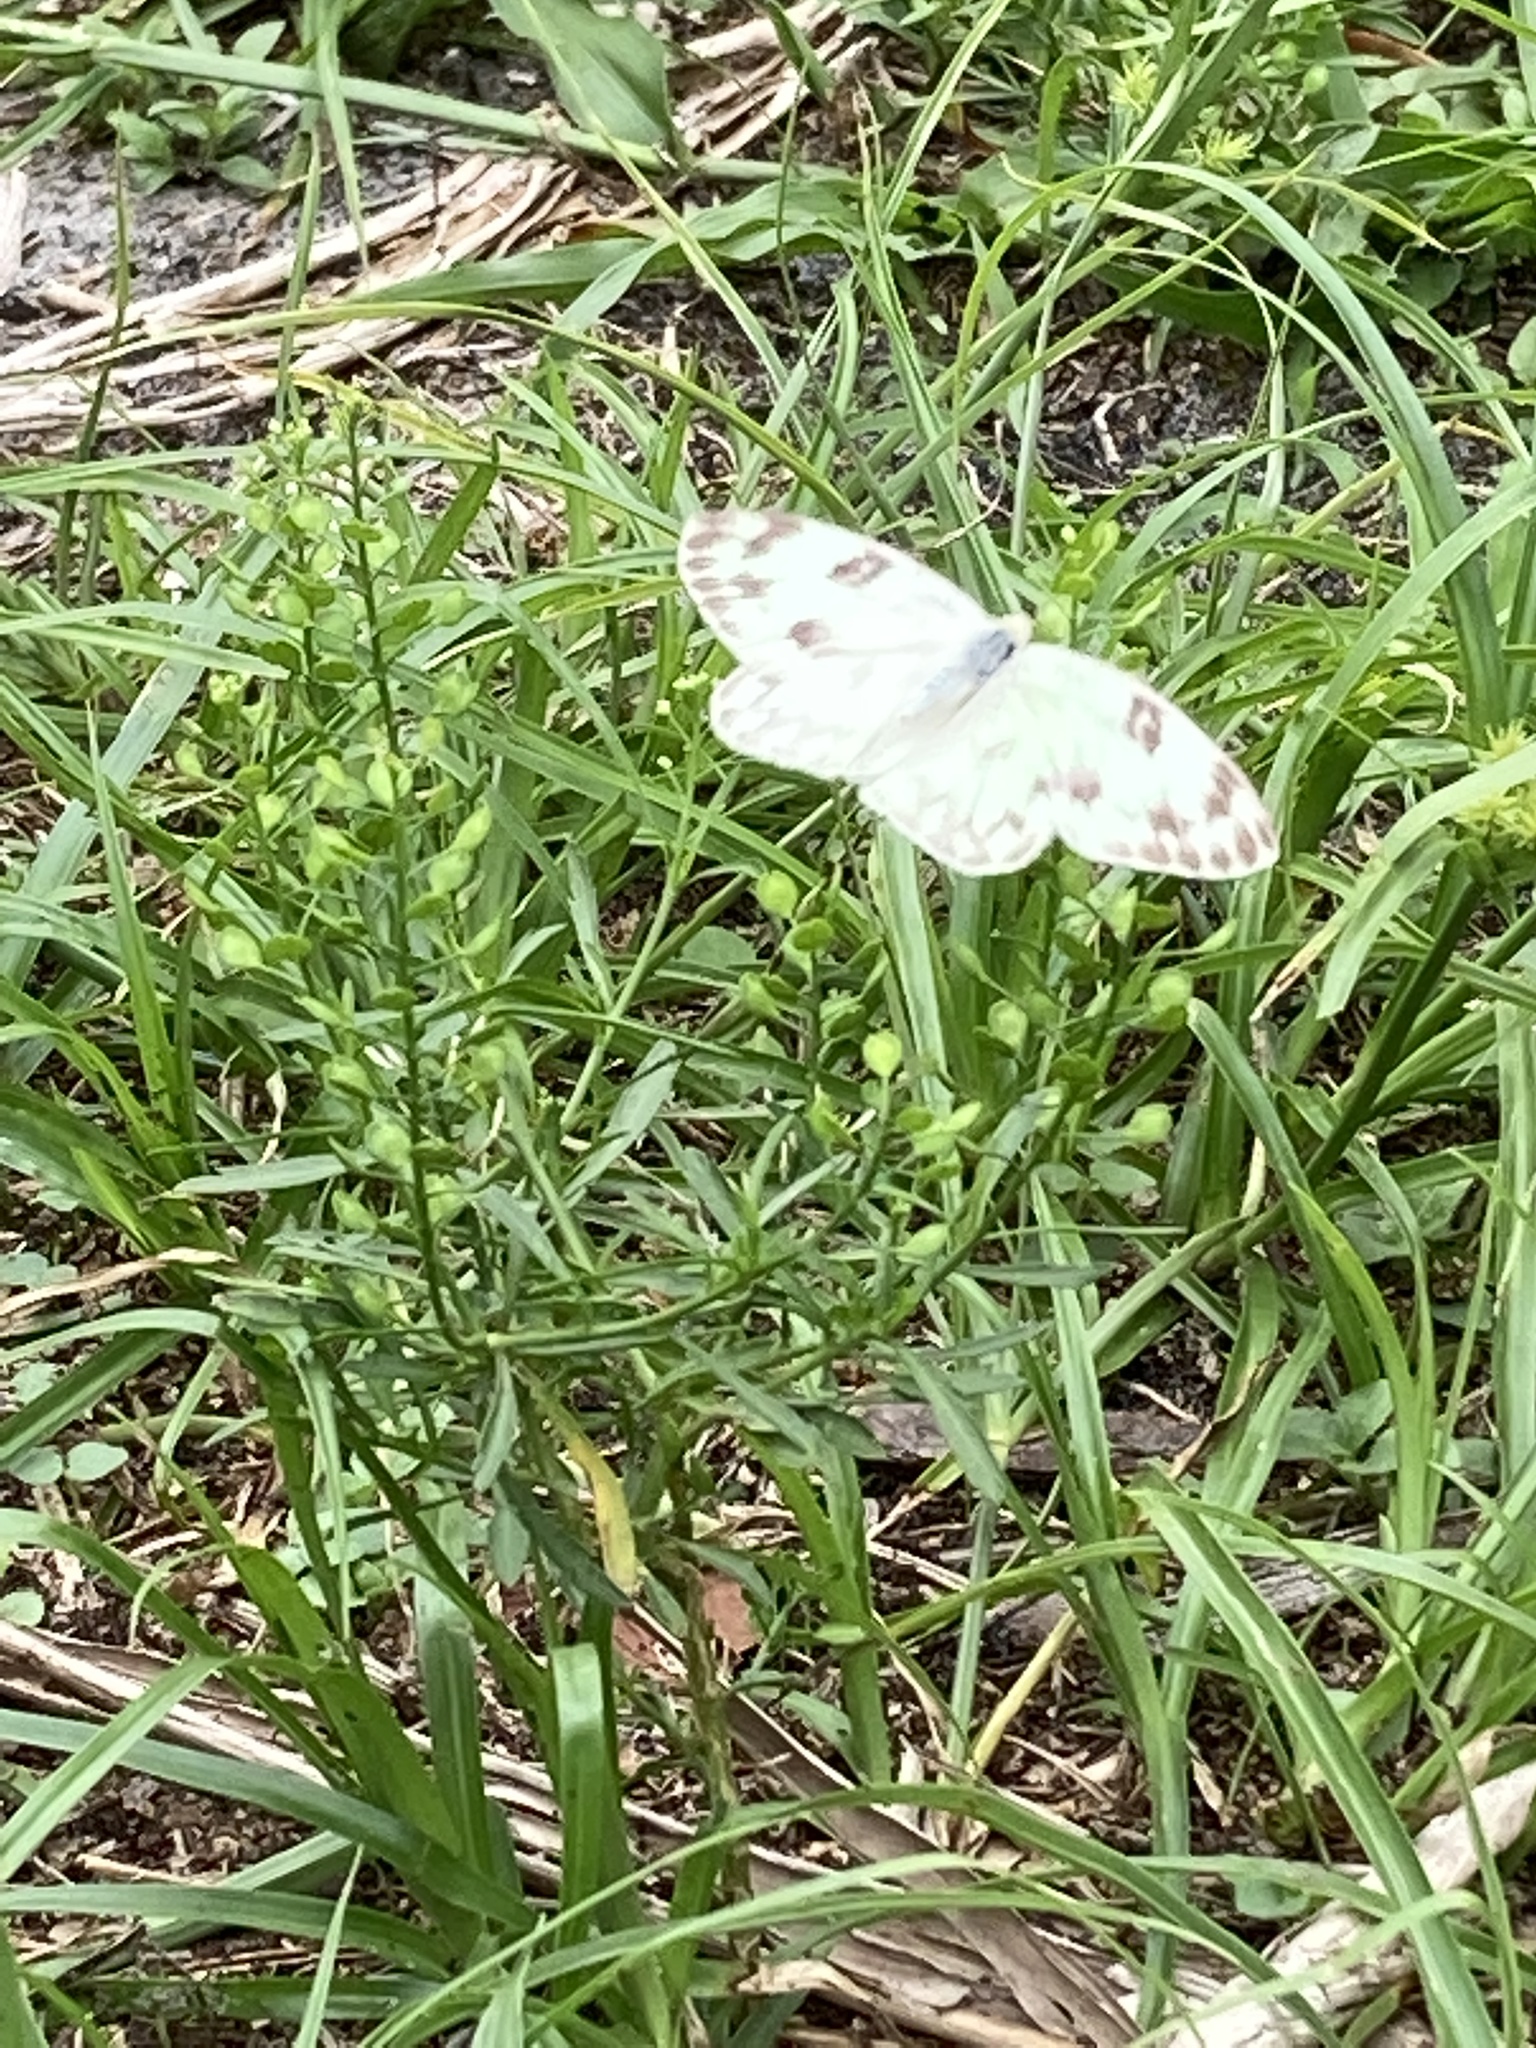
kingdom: Animalia
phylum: Arthropoda
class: Insecta
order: Lepidoptera
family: Pieridae
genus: Pontia
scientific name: Pontia protodice
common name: Checkered white
